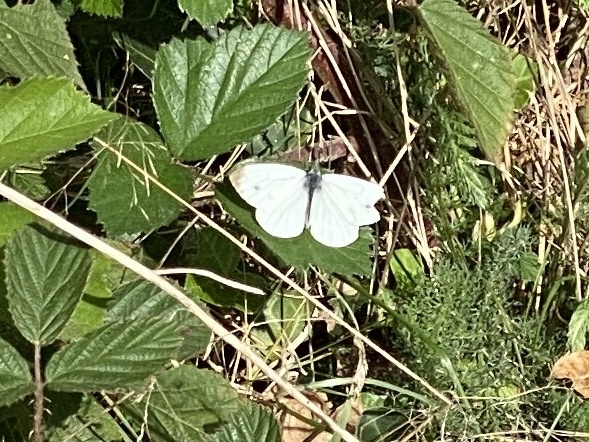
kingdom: Animalia
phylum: Arthropoda
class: Insecta
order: Lepidoptera
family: Pieridae
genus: Pieris
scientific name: Pieris napi
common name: Green-veined white
